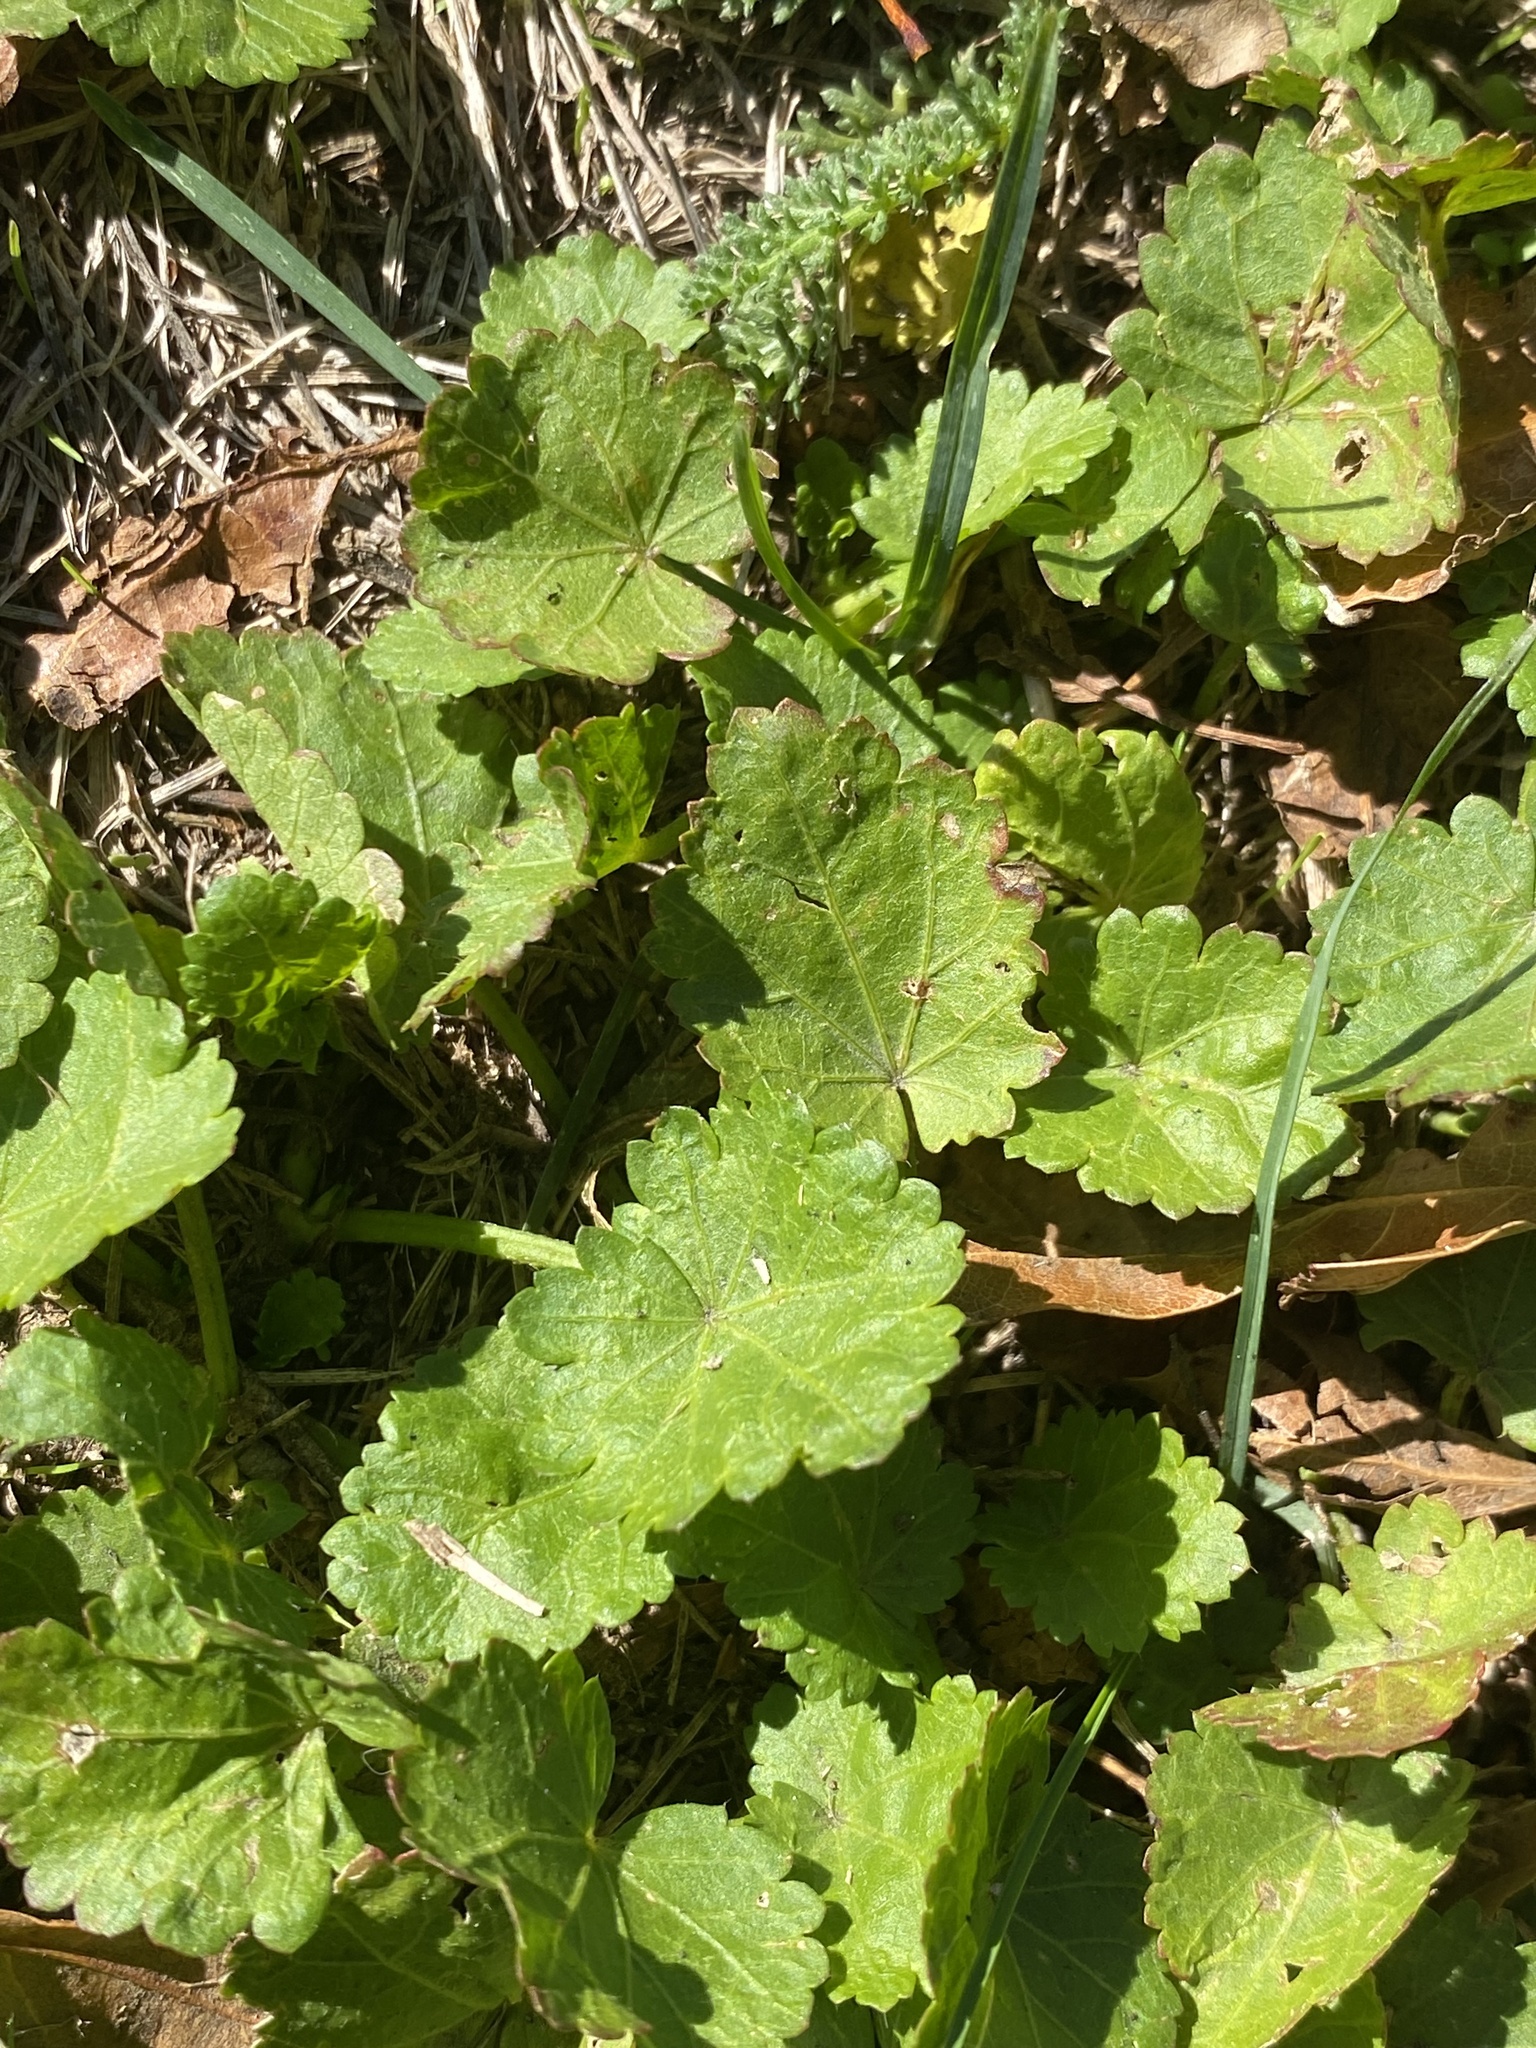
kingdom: Plantae
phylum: Tracheophyta
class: Magnoliopsida
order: Malvales
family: Malvaceae
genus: Modiola
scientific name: Modiola caroliniana
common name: Carolina bristlemallow
